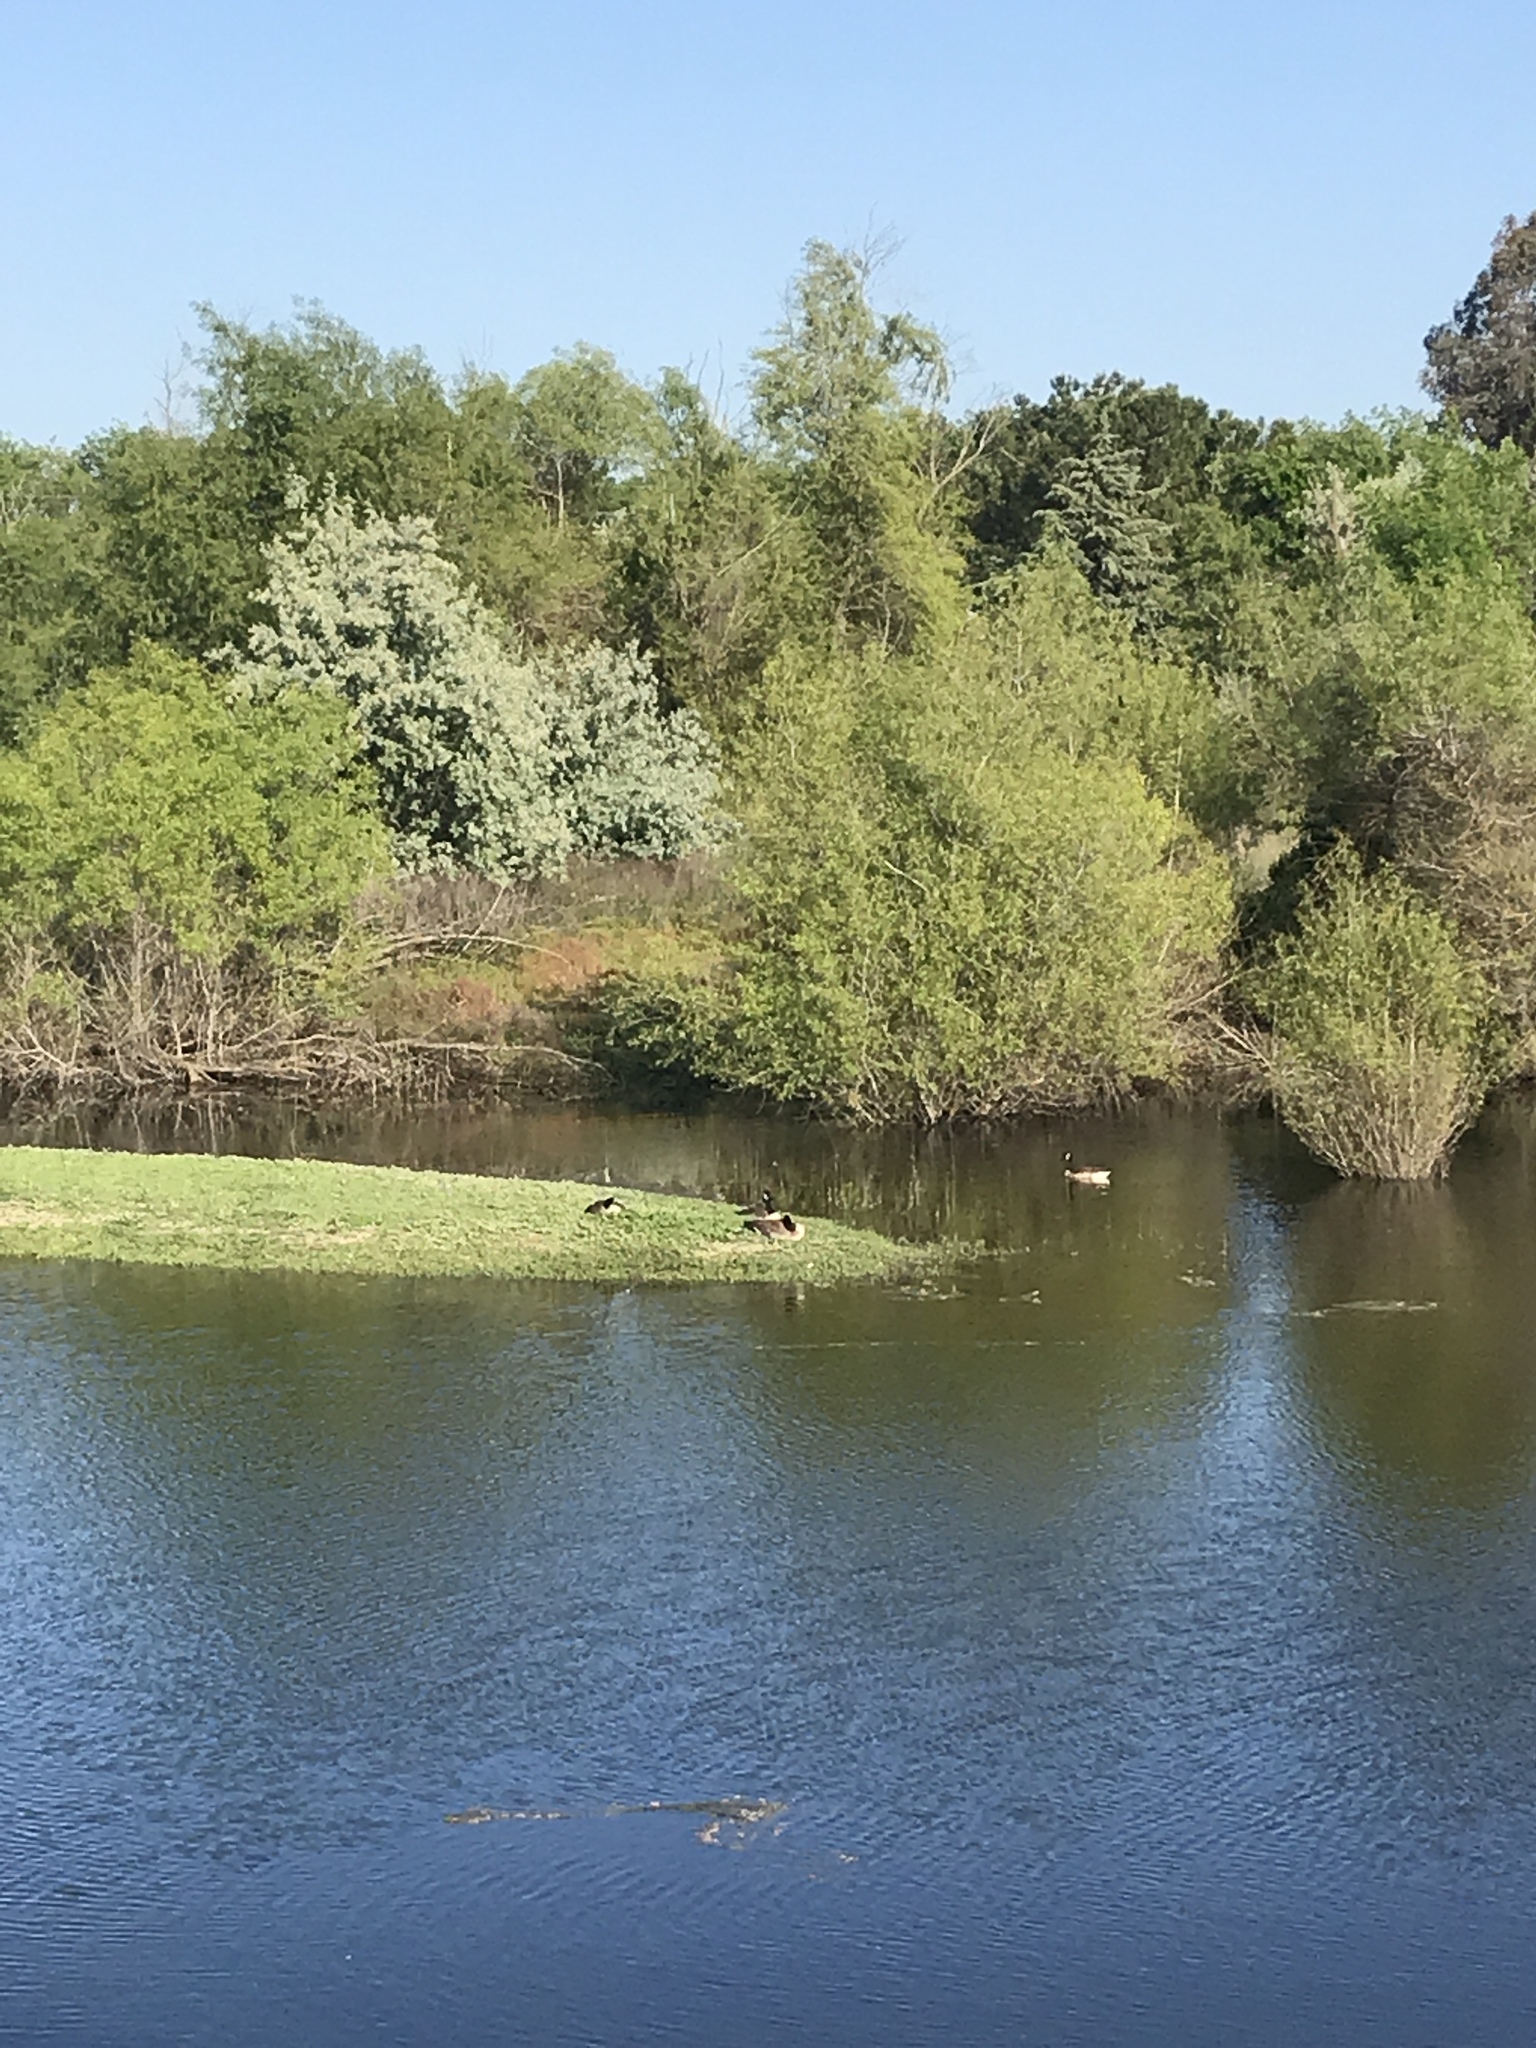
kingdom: Animalia
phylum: Chordata
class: Aves
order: Anseriformes
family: Anatidae
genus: Branta
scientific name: Branta canadensis
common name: Canada goose
